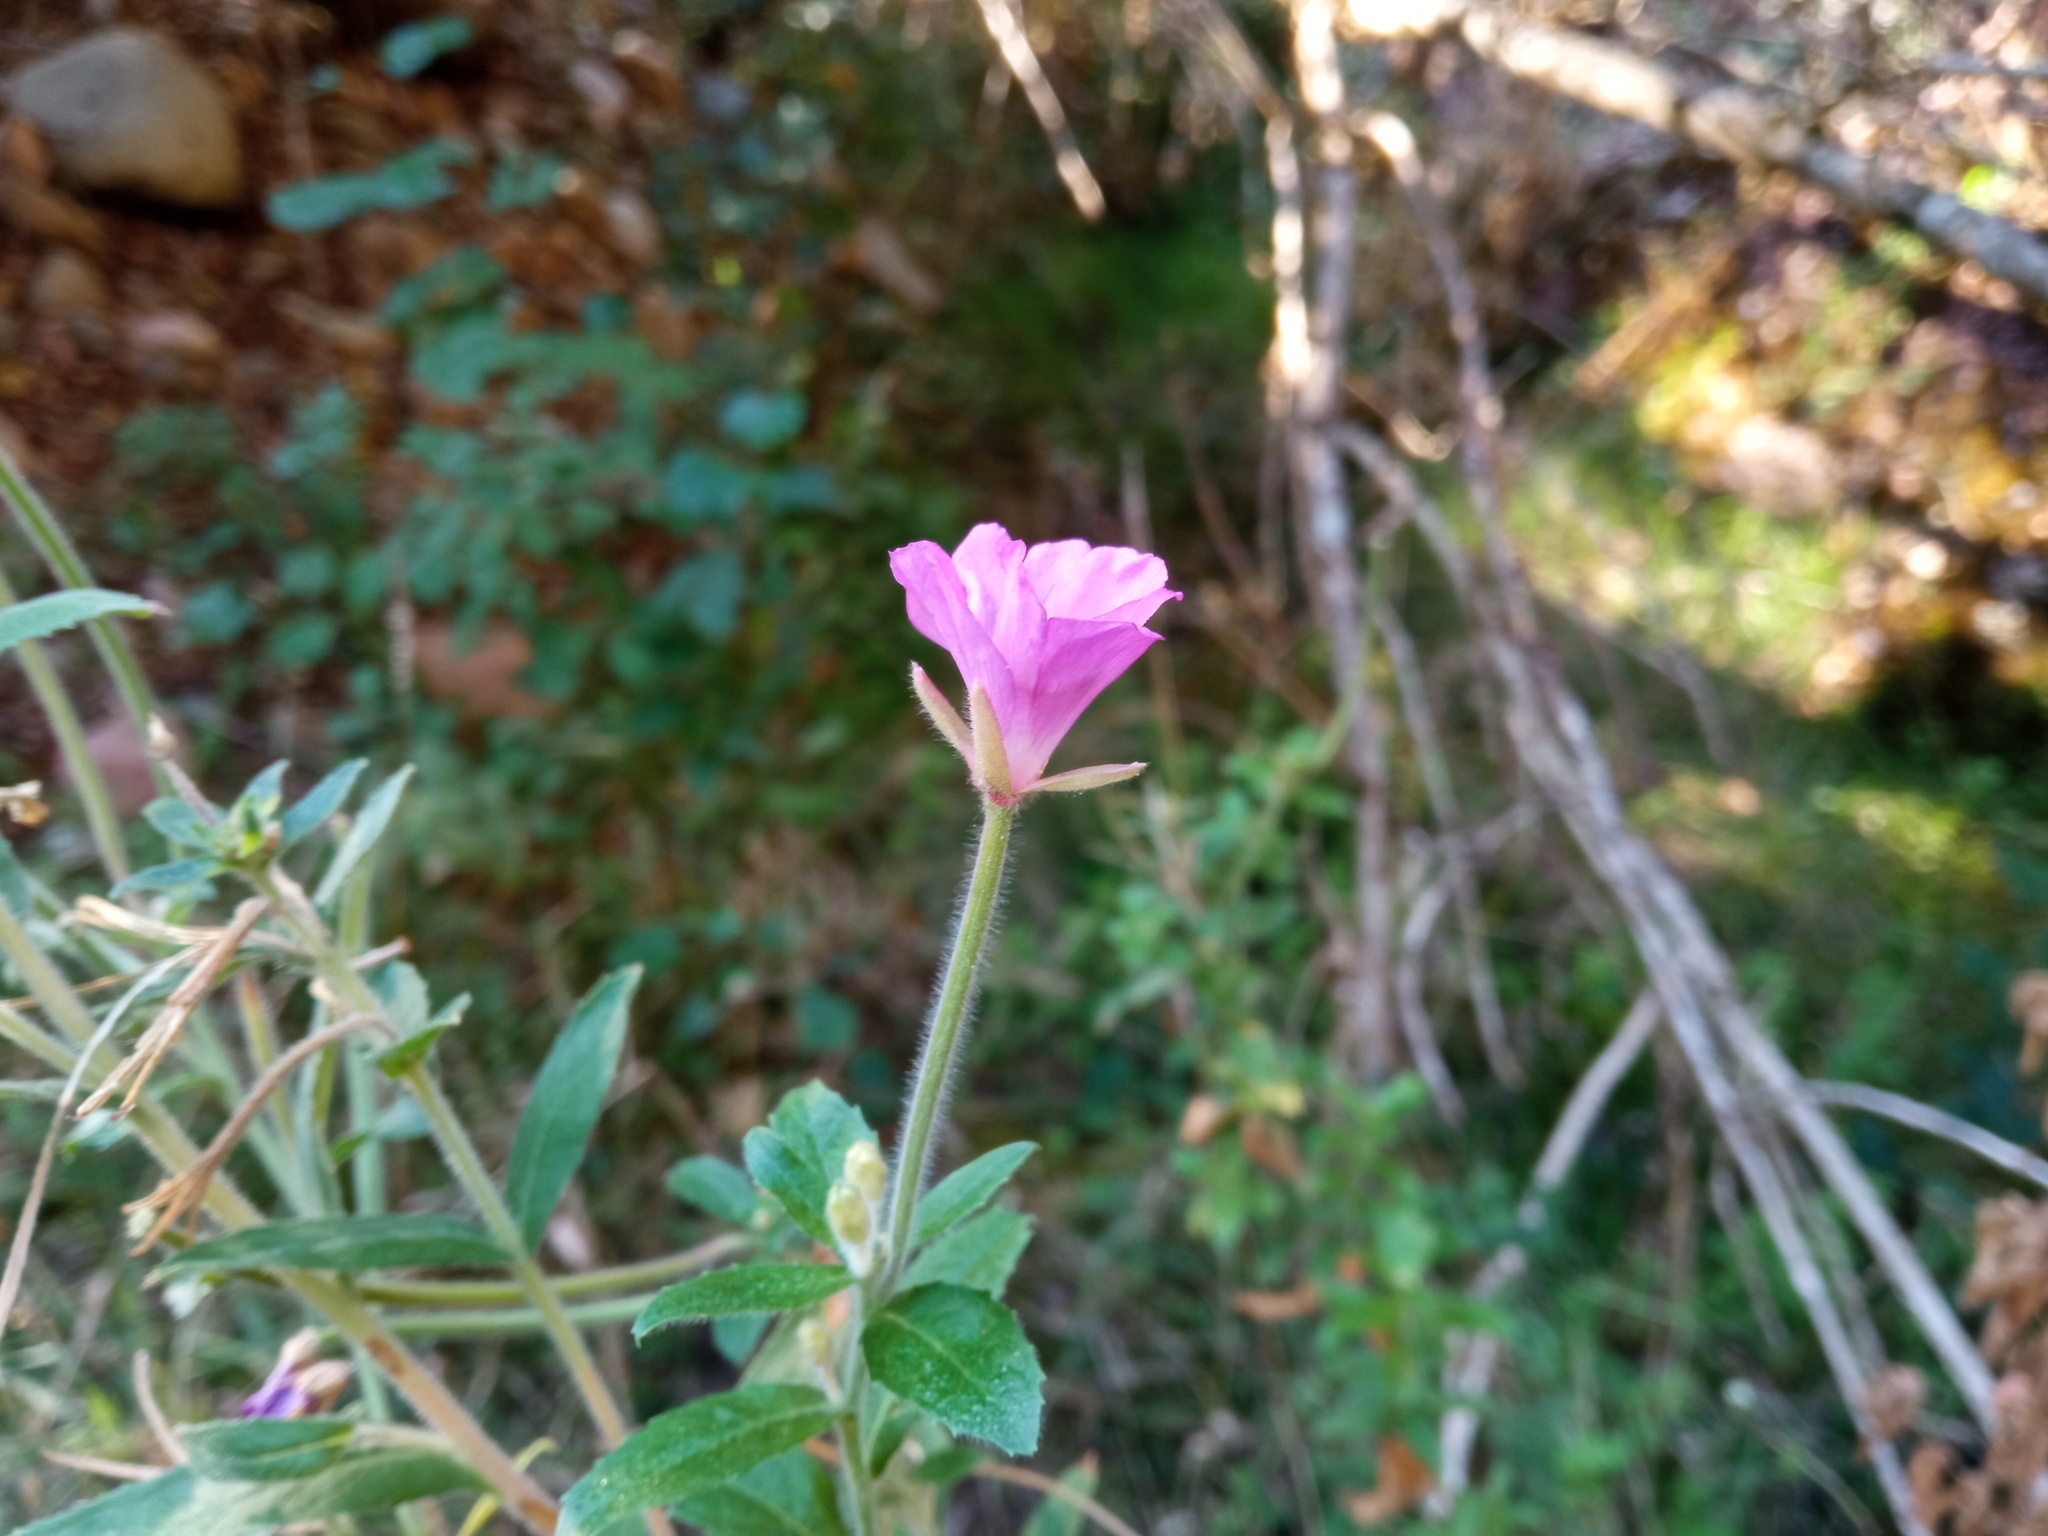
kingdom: Plantae
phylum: Tracheophyta
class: Magnoliopsida
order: Myrtales
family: Onagraceae
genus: Epilobium
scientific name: Epilobium hirsutum
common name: Great willowherb
